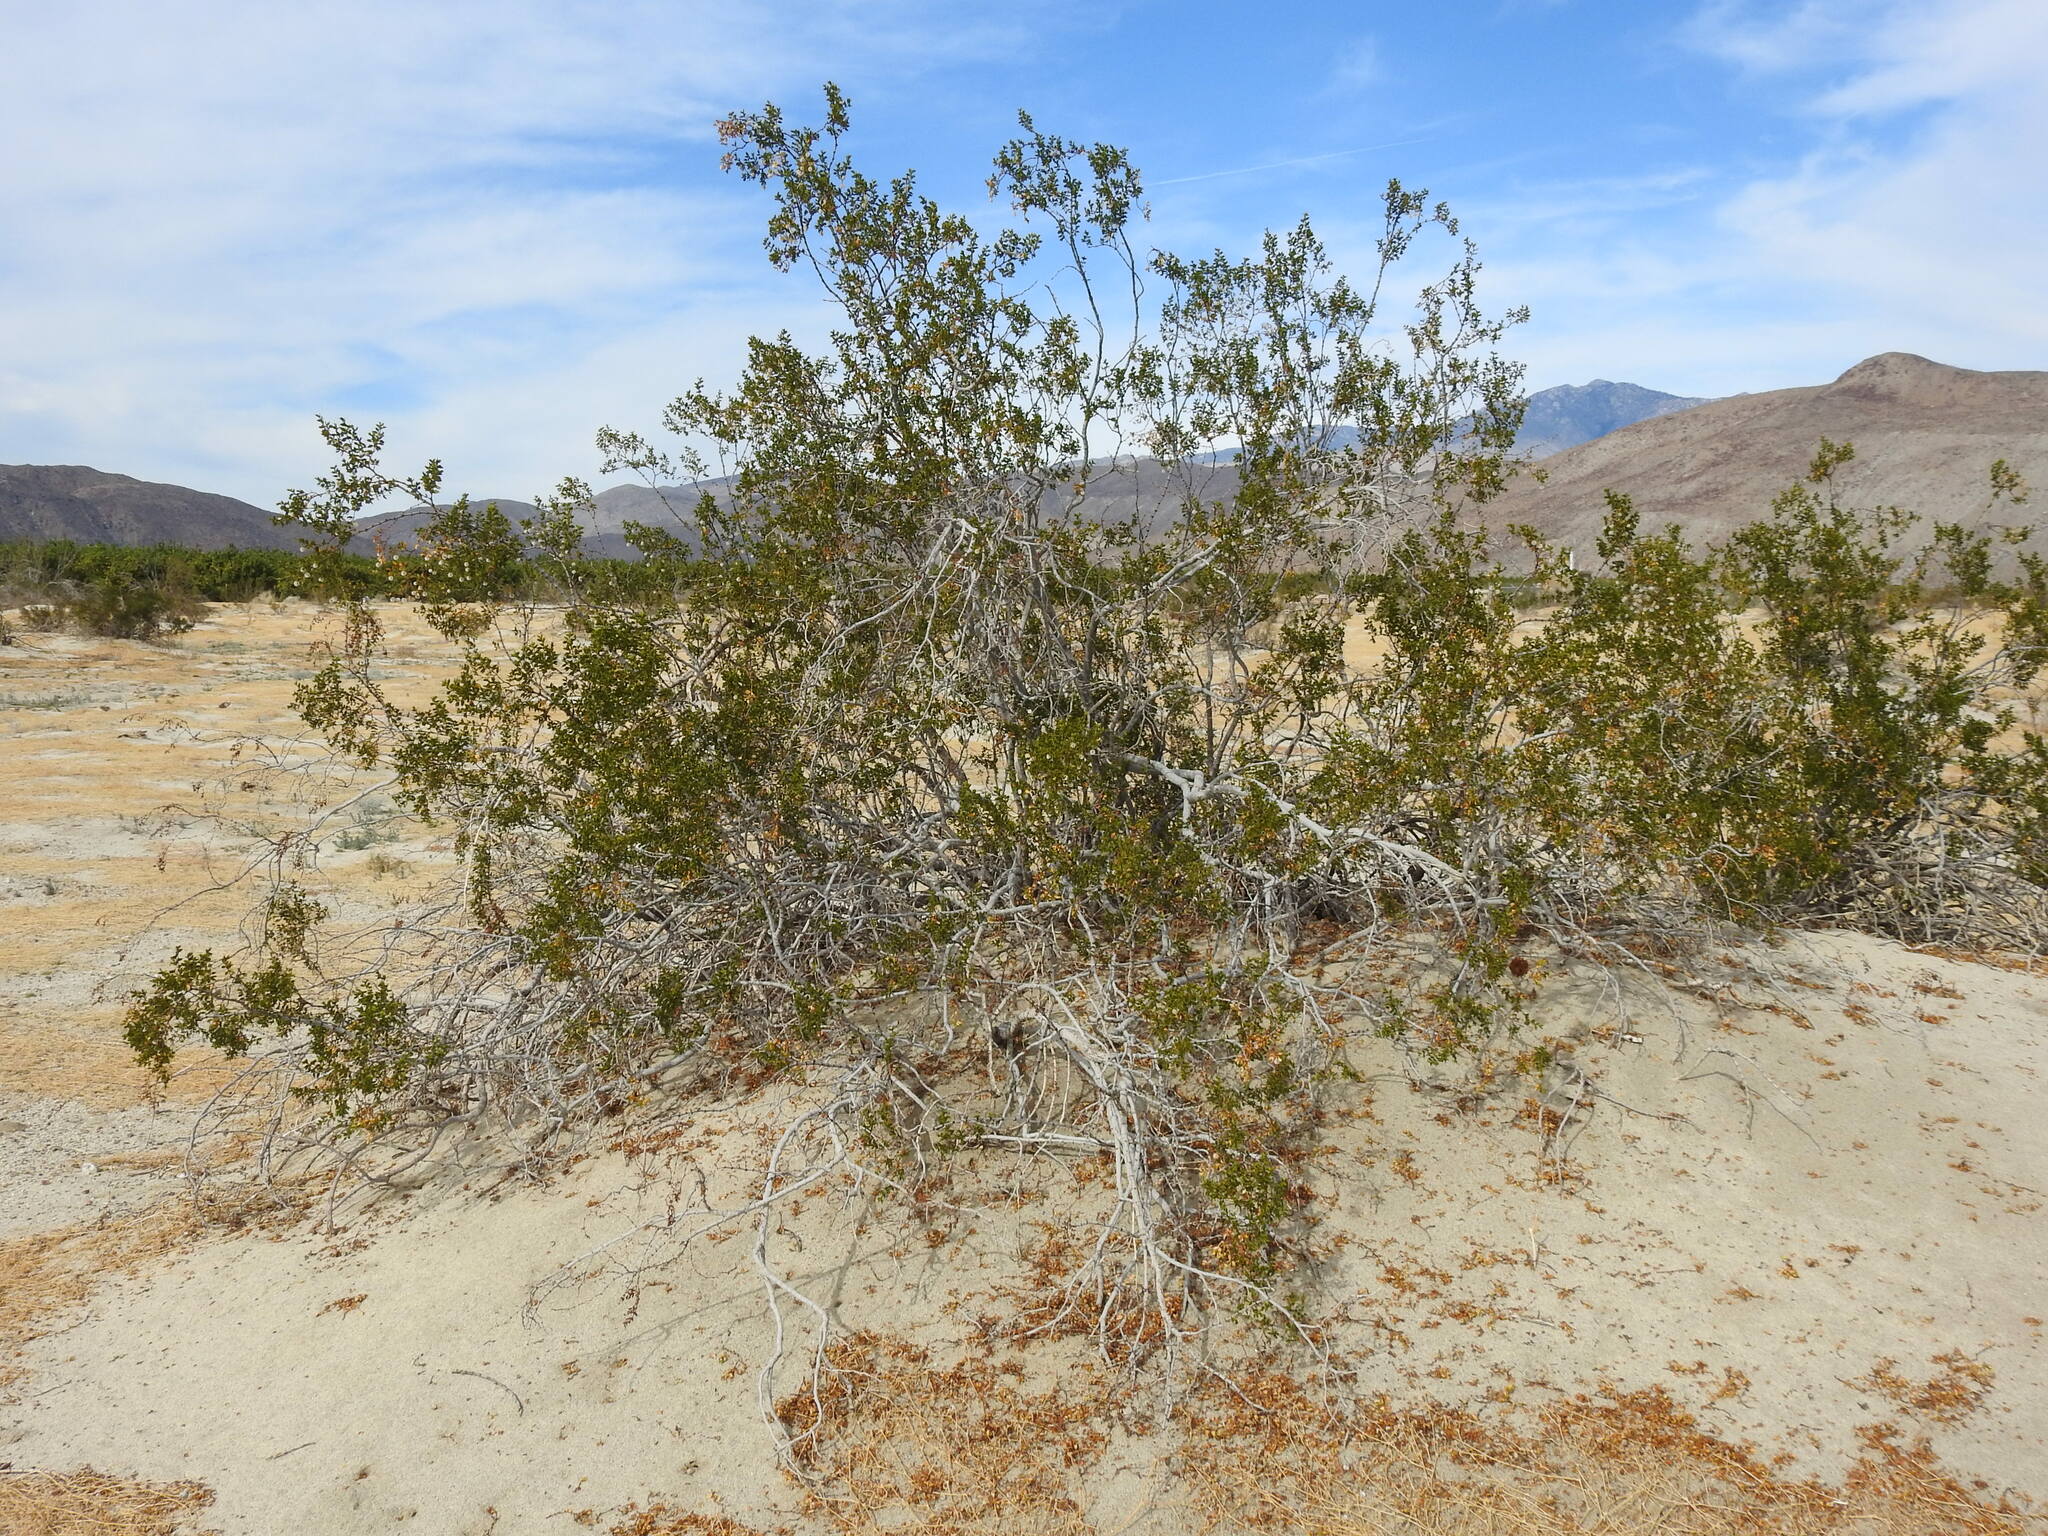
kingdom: Plantae
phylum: Tracheophyta
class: Magnoliopsida
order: Zygophyllales
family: Zygophyllaceae
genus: Larrea
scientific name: Larrea tridentata
